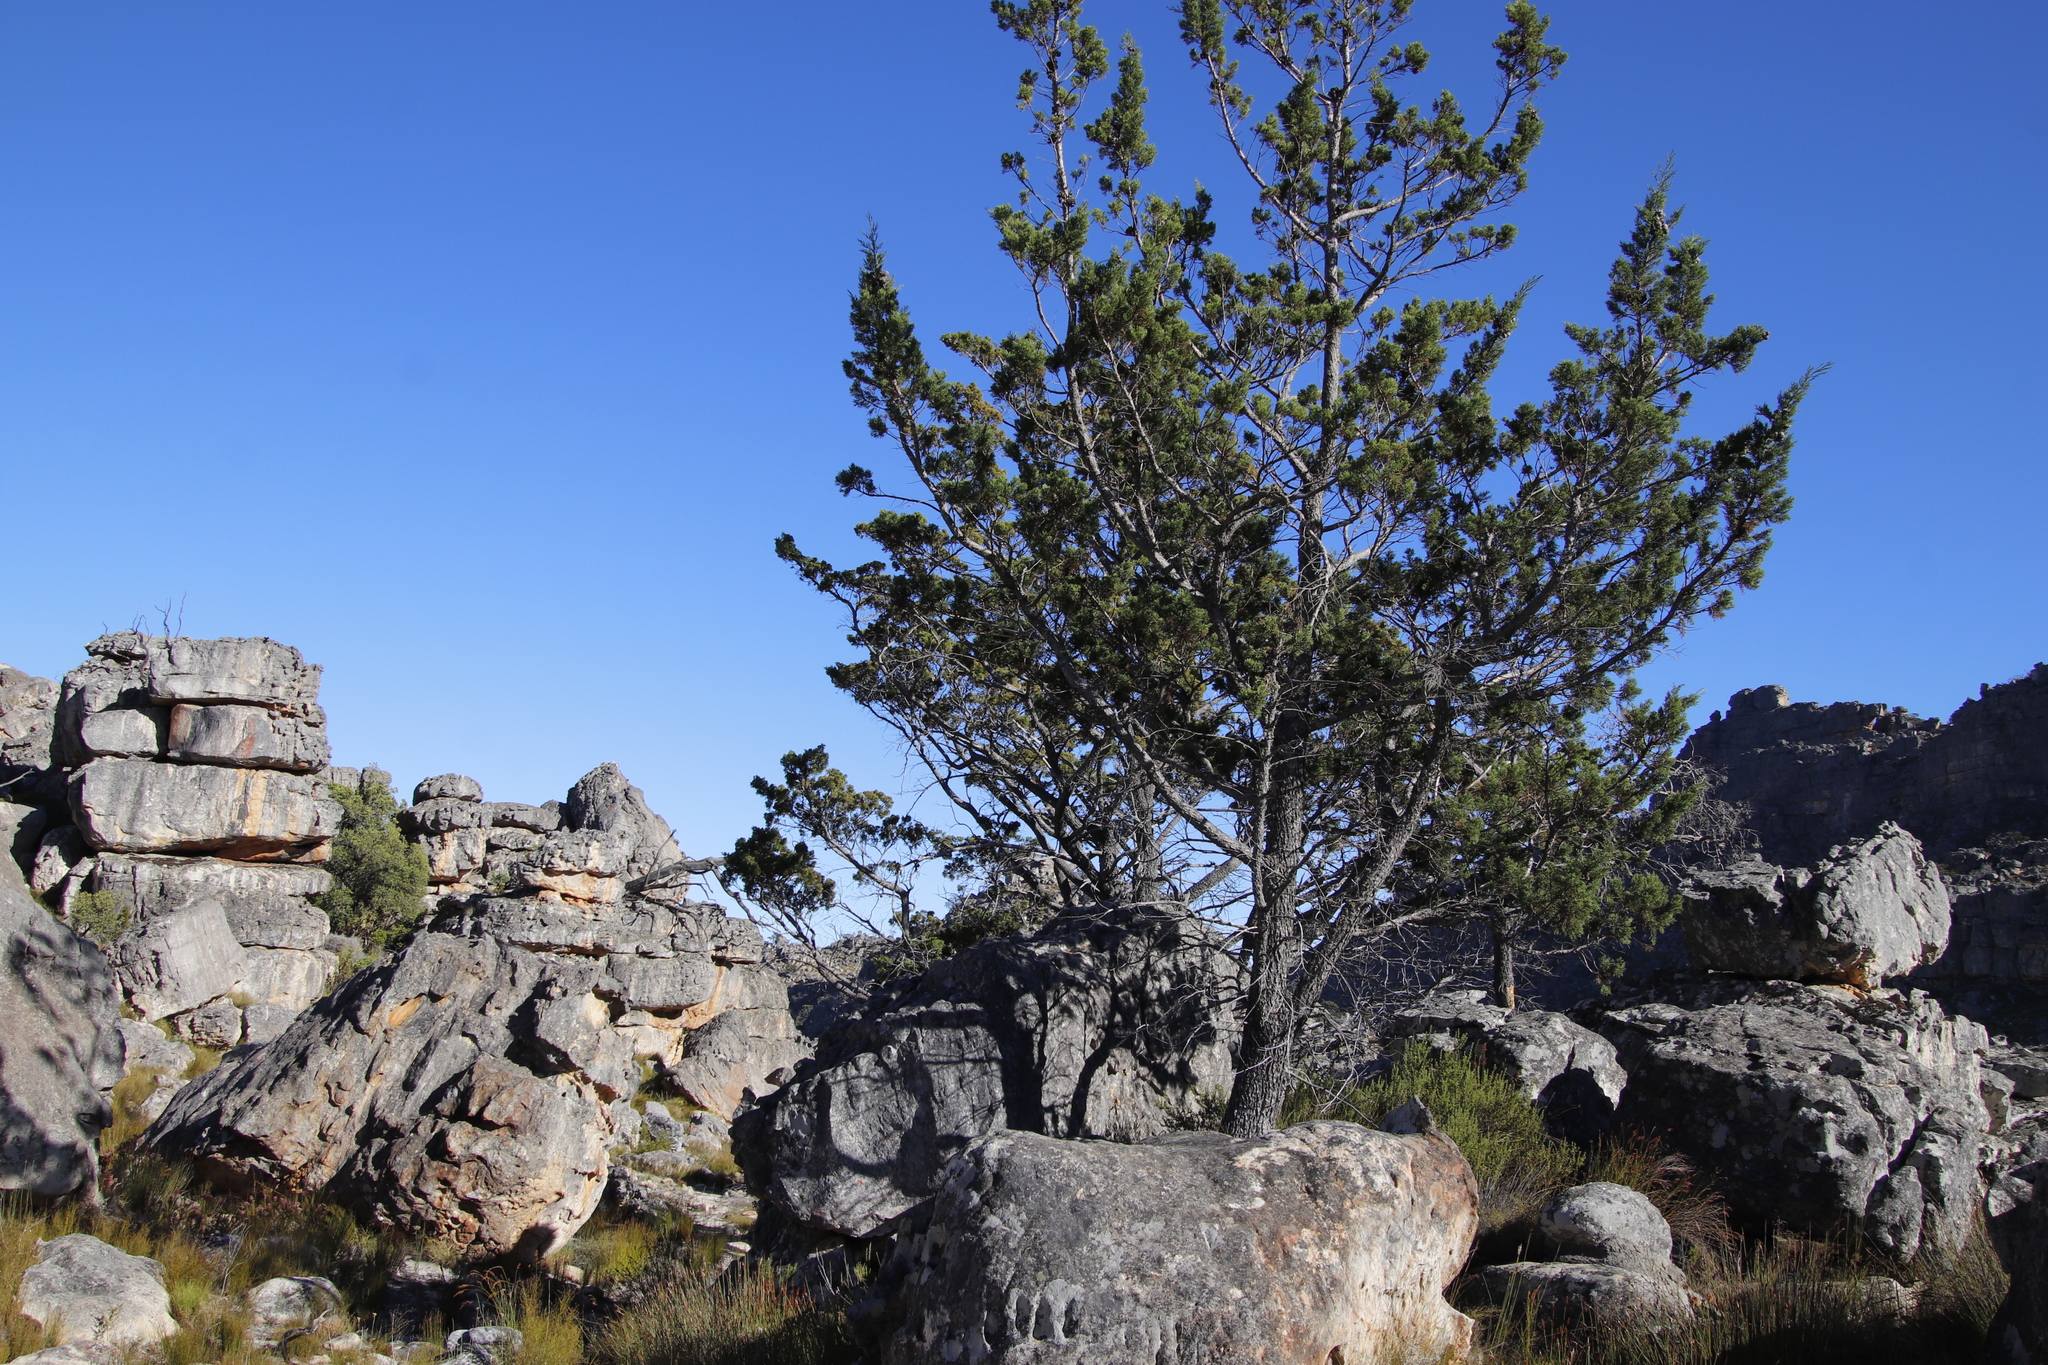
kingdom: Plantae
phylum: Tracheophyta
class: Pinopsida
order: Pinales
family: Cupressaceae
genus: Widdringtonia
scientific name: Widdringtonia nodiflora
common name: Cape cypress
